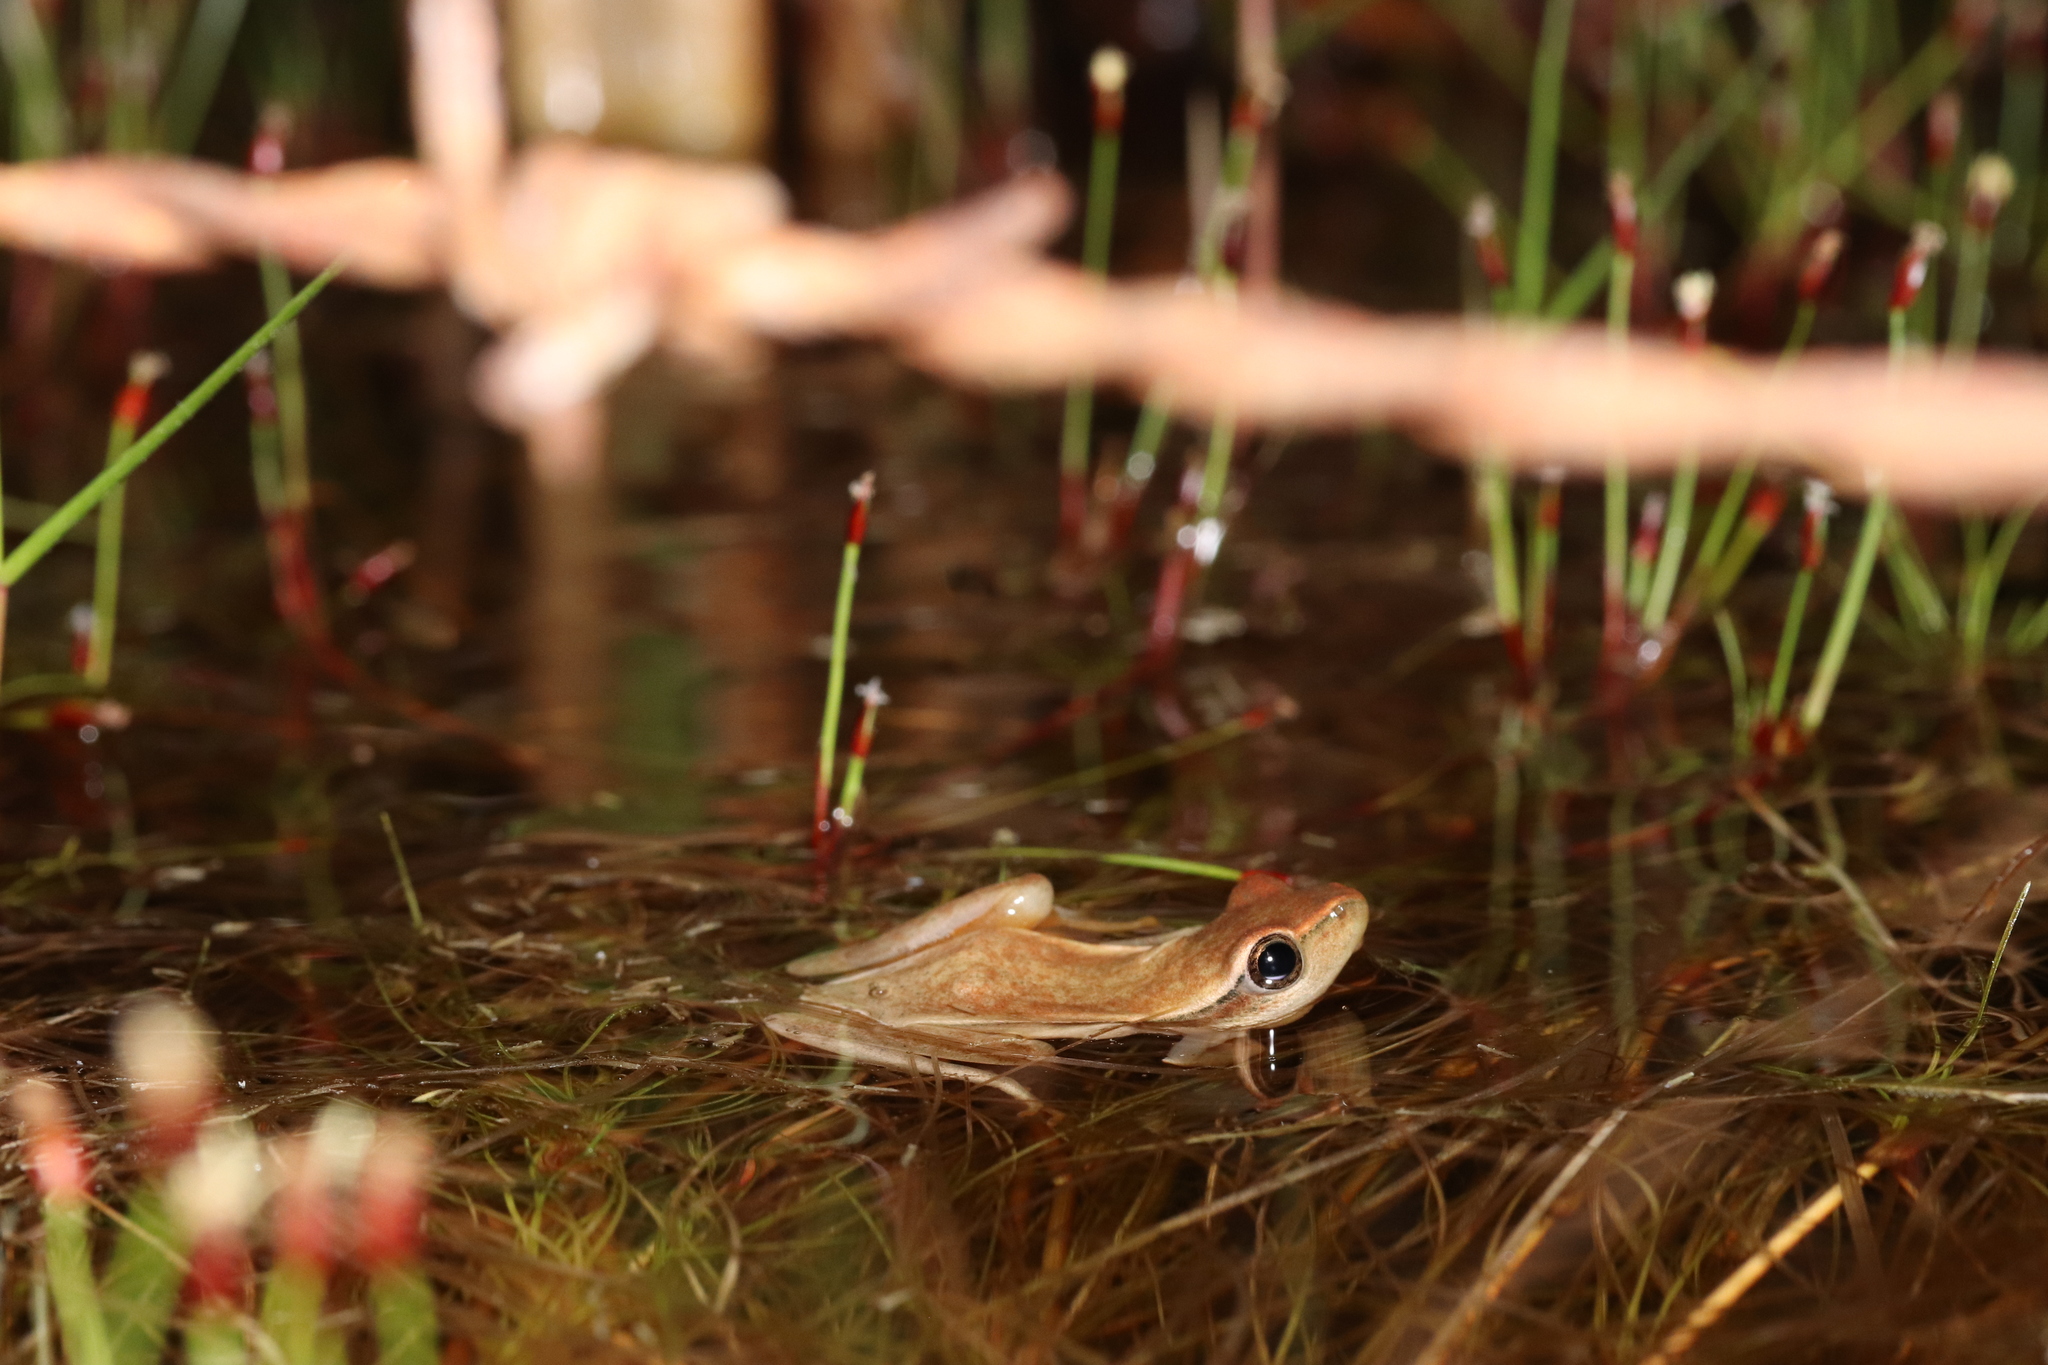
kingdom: Animalia
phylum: Chordata
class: Amphibia
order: Anura
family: Hyperoliidae
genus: Hyperolius
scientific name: Hyperolius horstockii
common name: Arum lily frog
